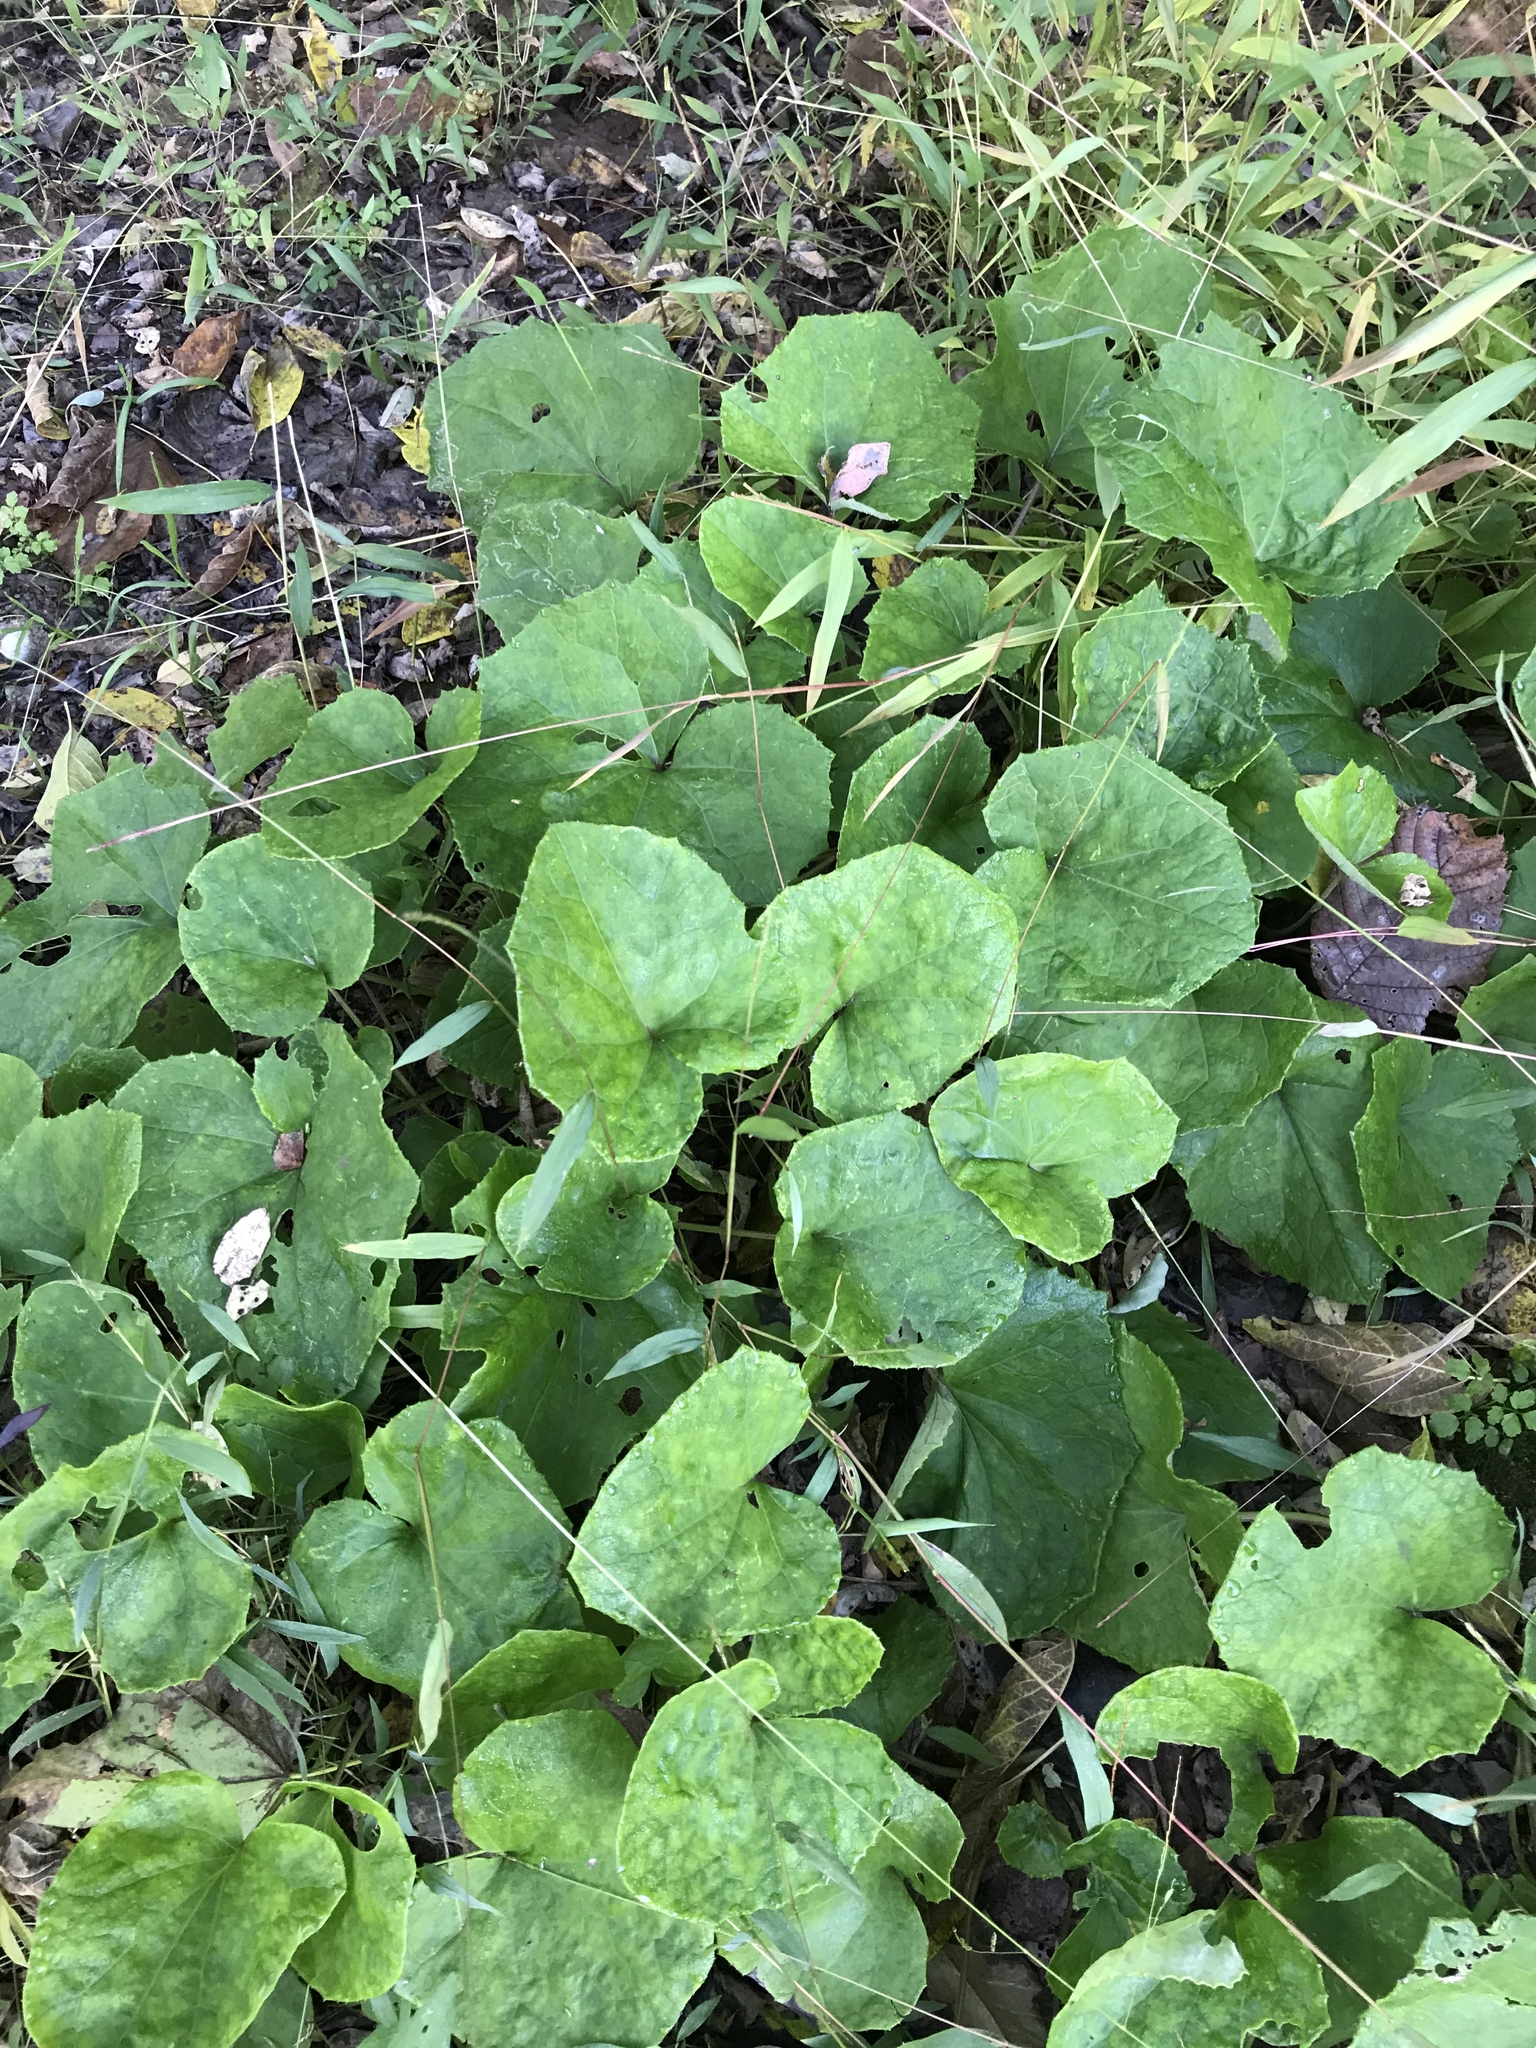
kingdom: Plantae
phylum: Tracheophyta
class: Magnoliopsida
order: Asterales
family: Asteraceae
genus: Tussilago
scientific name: Tussilago farfara
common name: Coltsfoot
